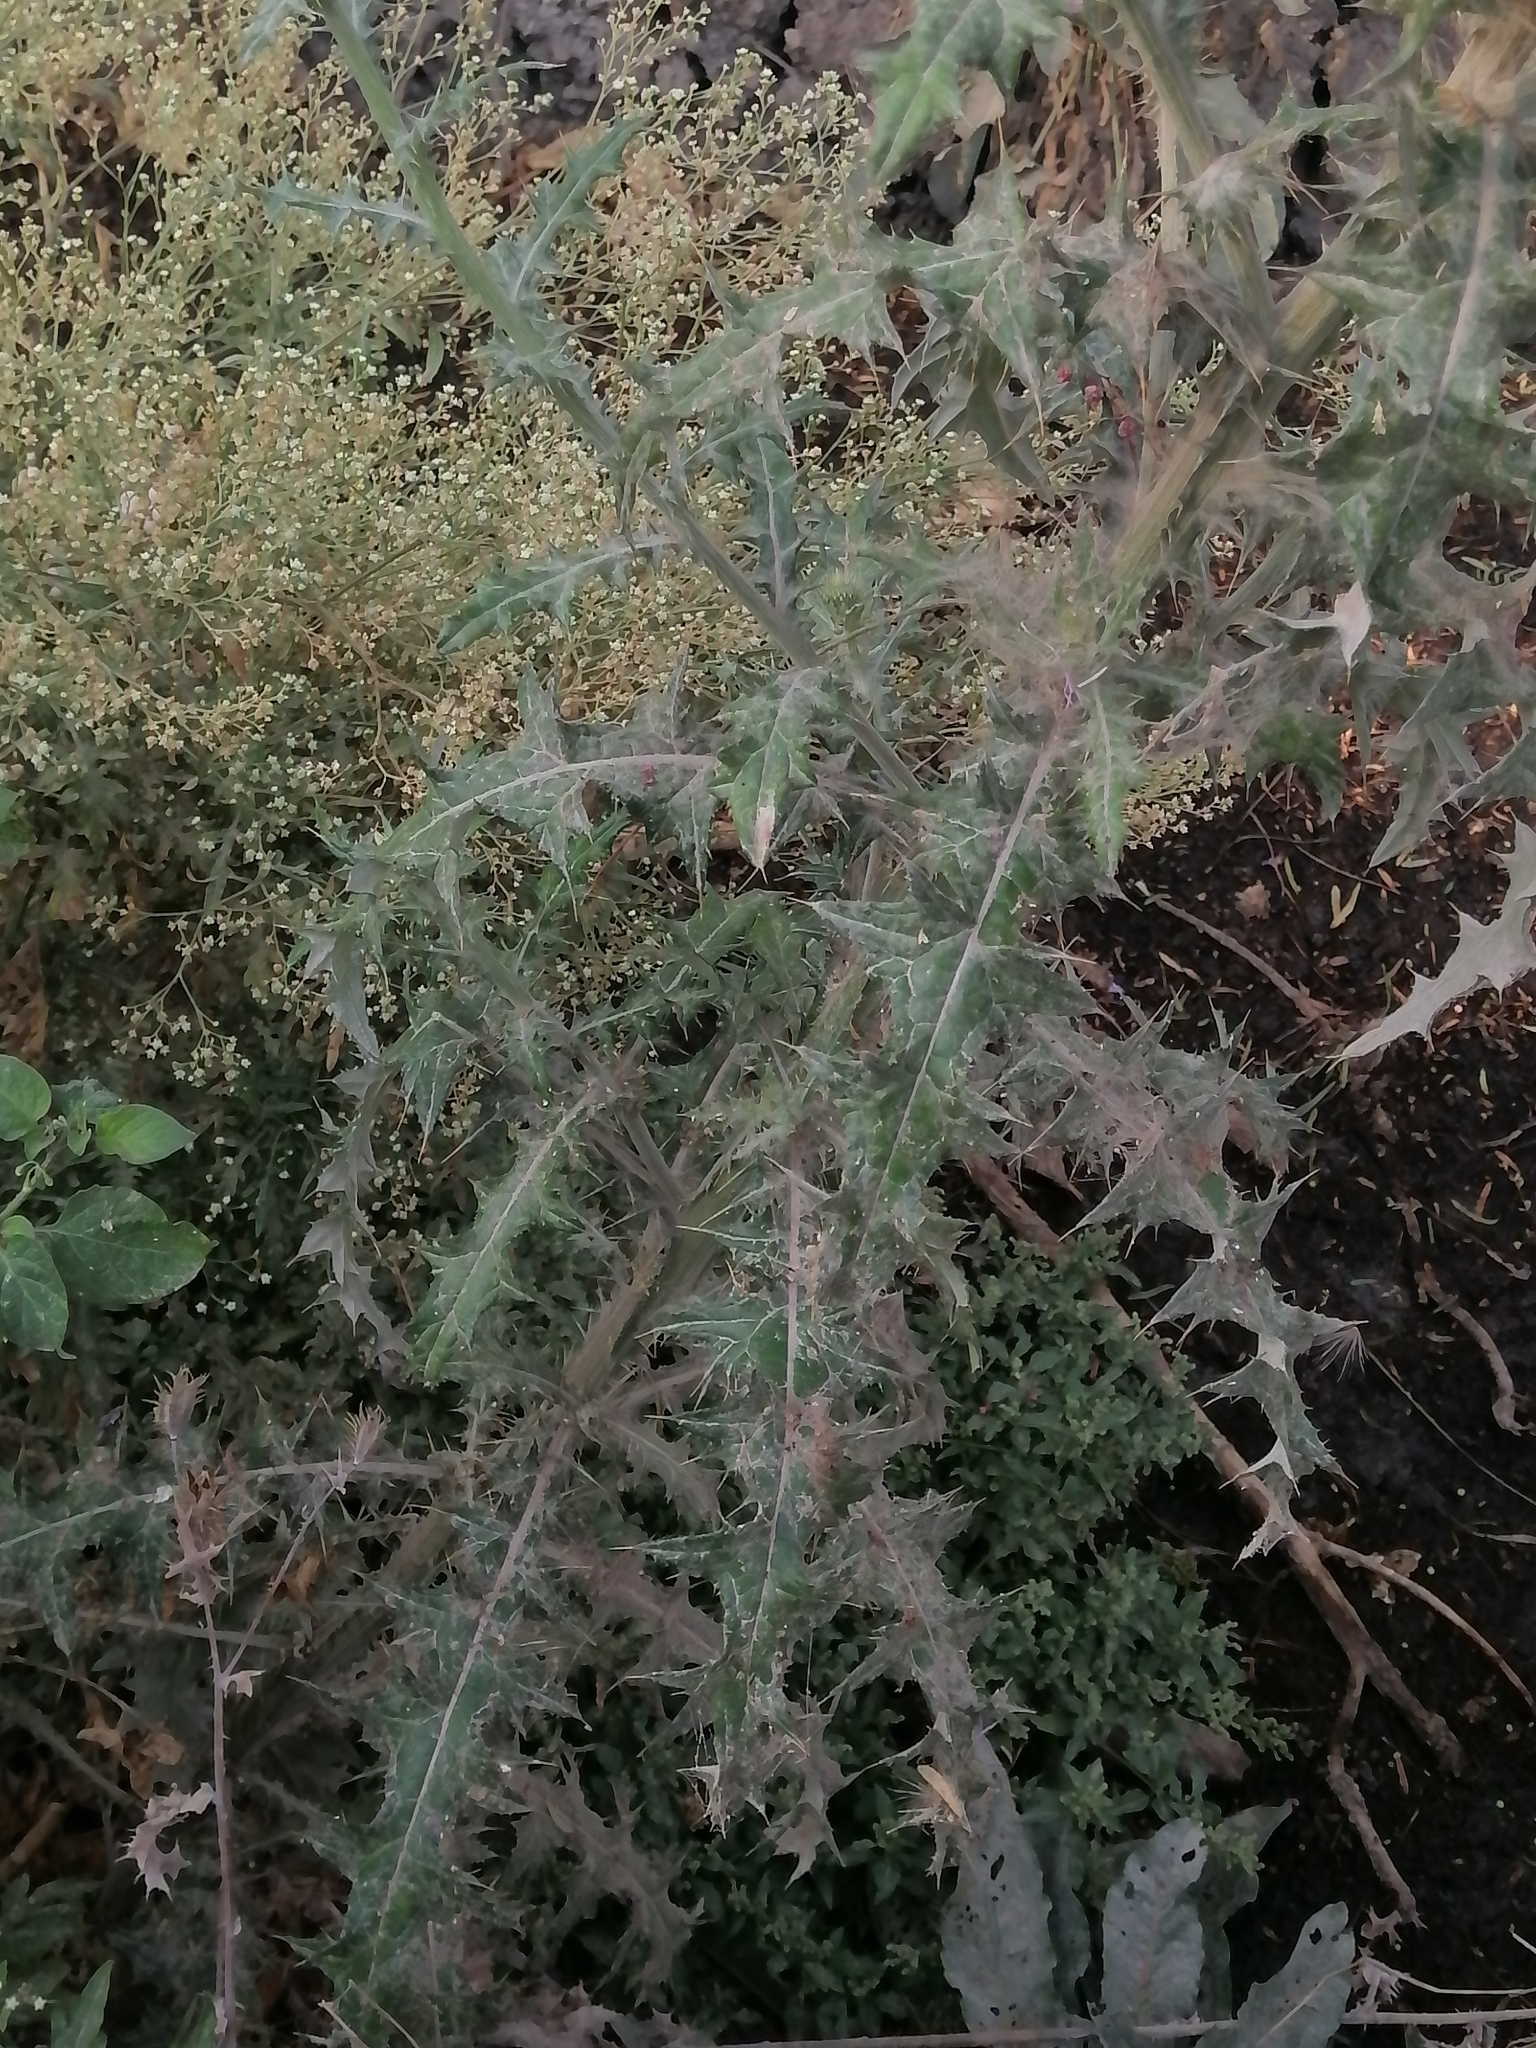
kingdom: Plantae
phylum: Tracheophyta
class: Magnoliopsida
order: Asterales
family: Asteraceae
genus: Cirsium
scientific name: Cirsium rhaphilepis
